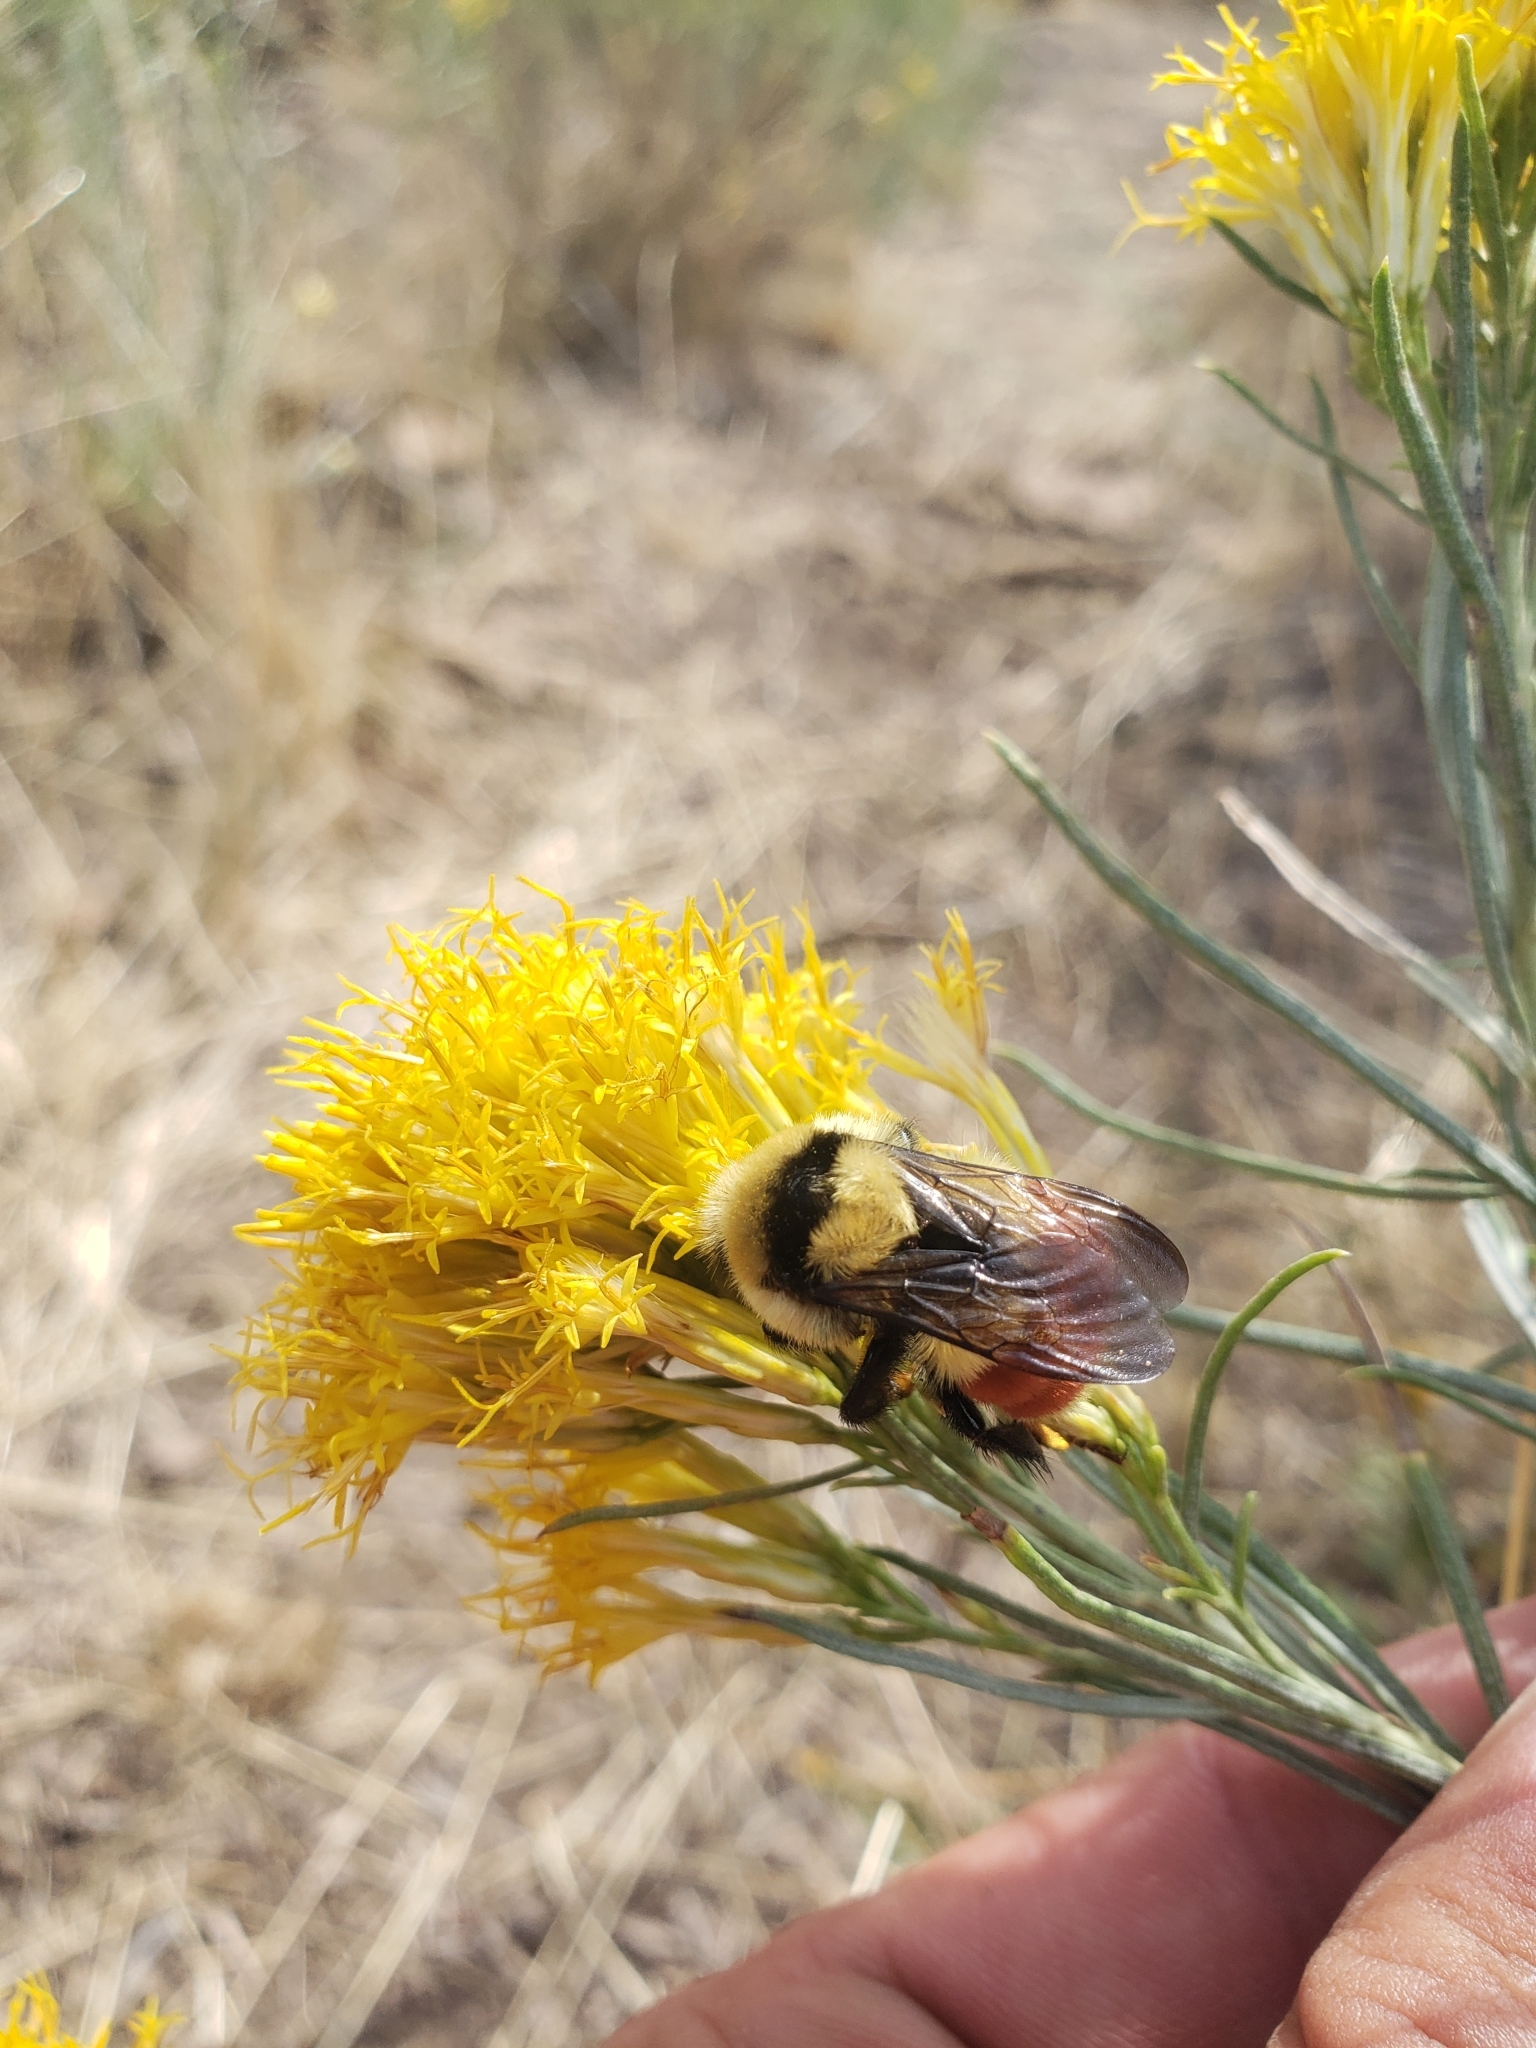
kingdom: Animalia
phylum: Arthropoda
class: Insecta
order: Hymenoptera
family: Apidae
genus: Bombus
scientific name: Bombus huntii
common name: Hunt bumble bee
